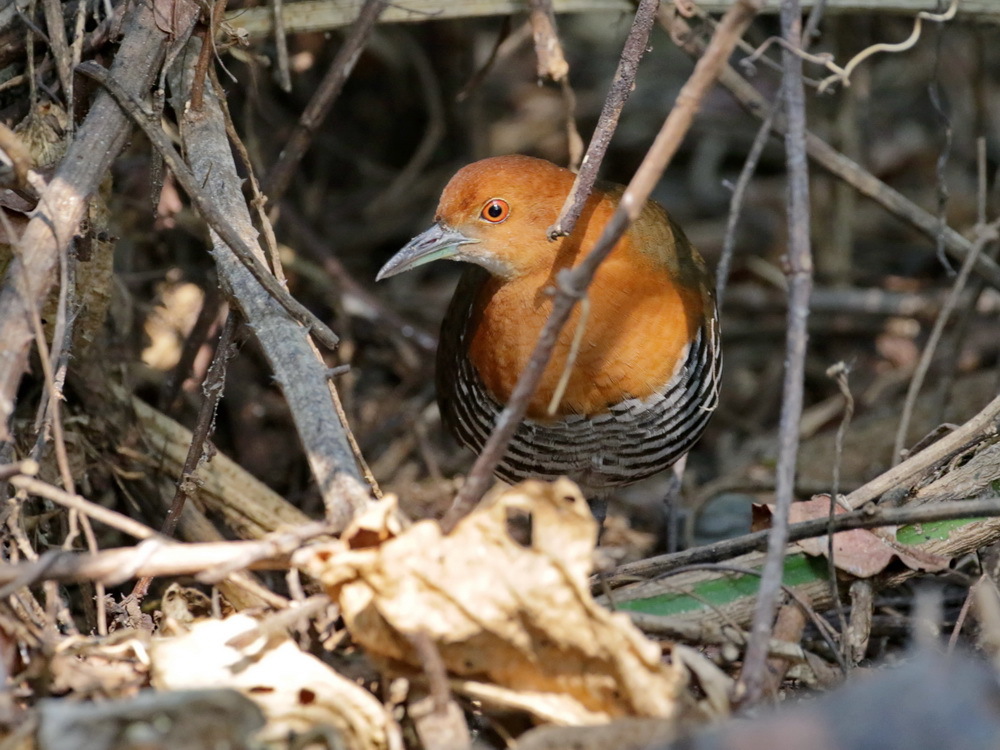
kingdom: Animalia
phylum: Chordata
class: Aves
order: Gruiformes
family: Rallidae
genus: Rallina
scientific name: Rallina eurizonoides
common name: Slaty-legged crake
